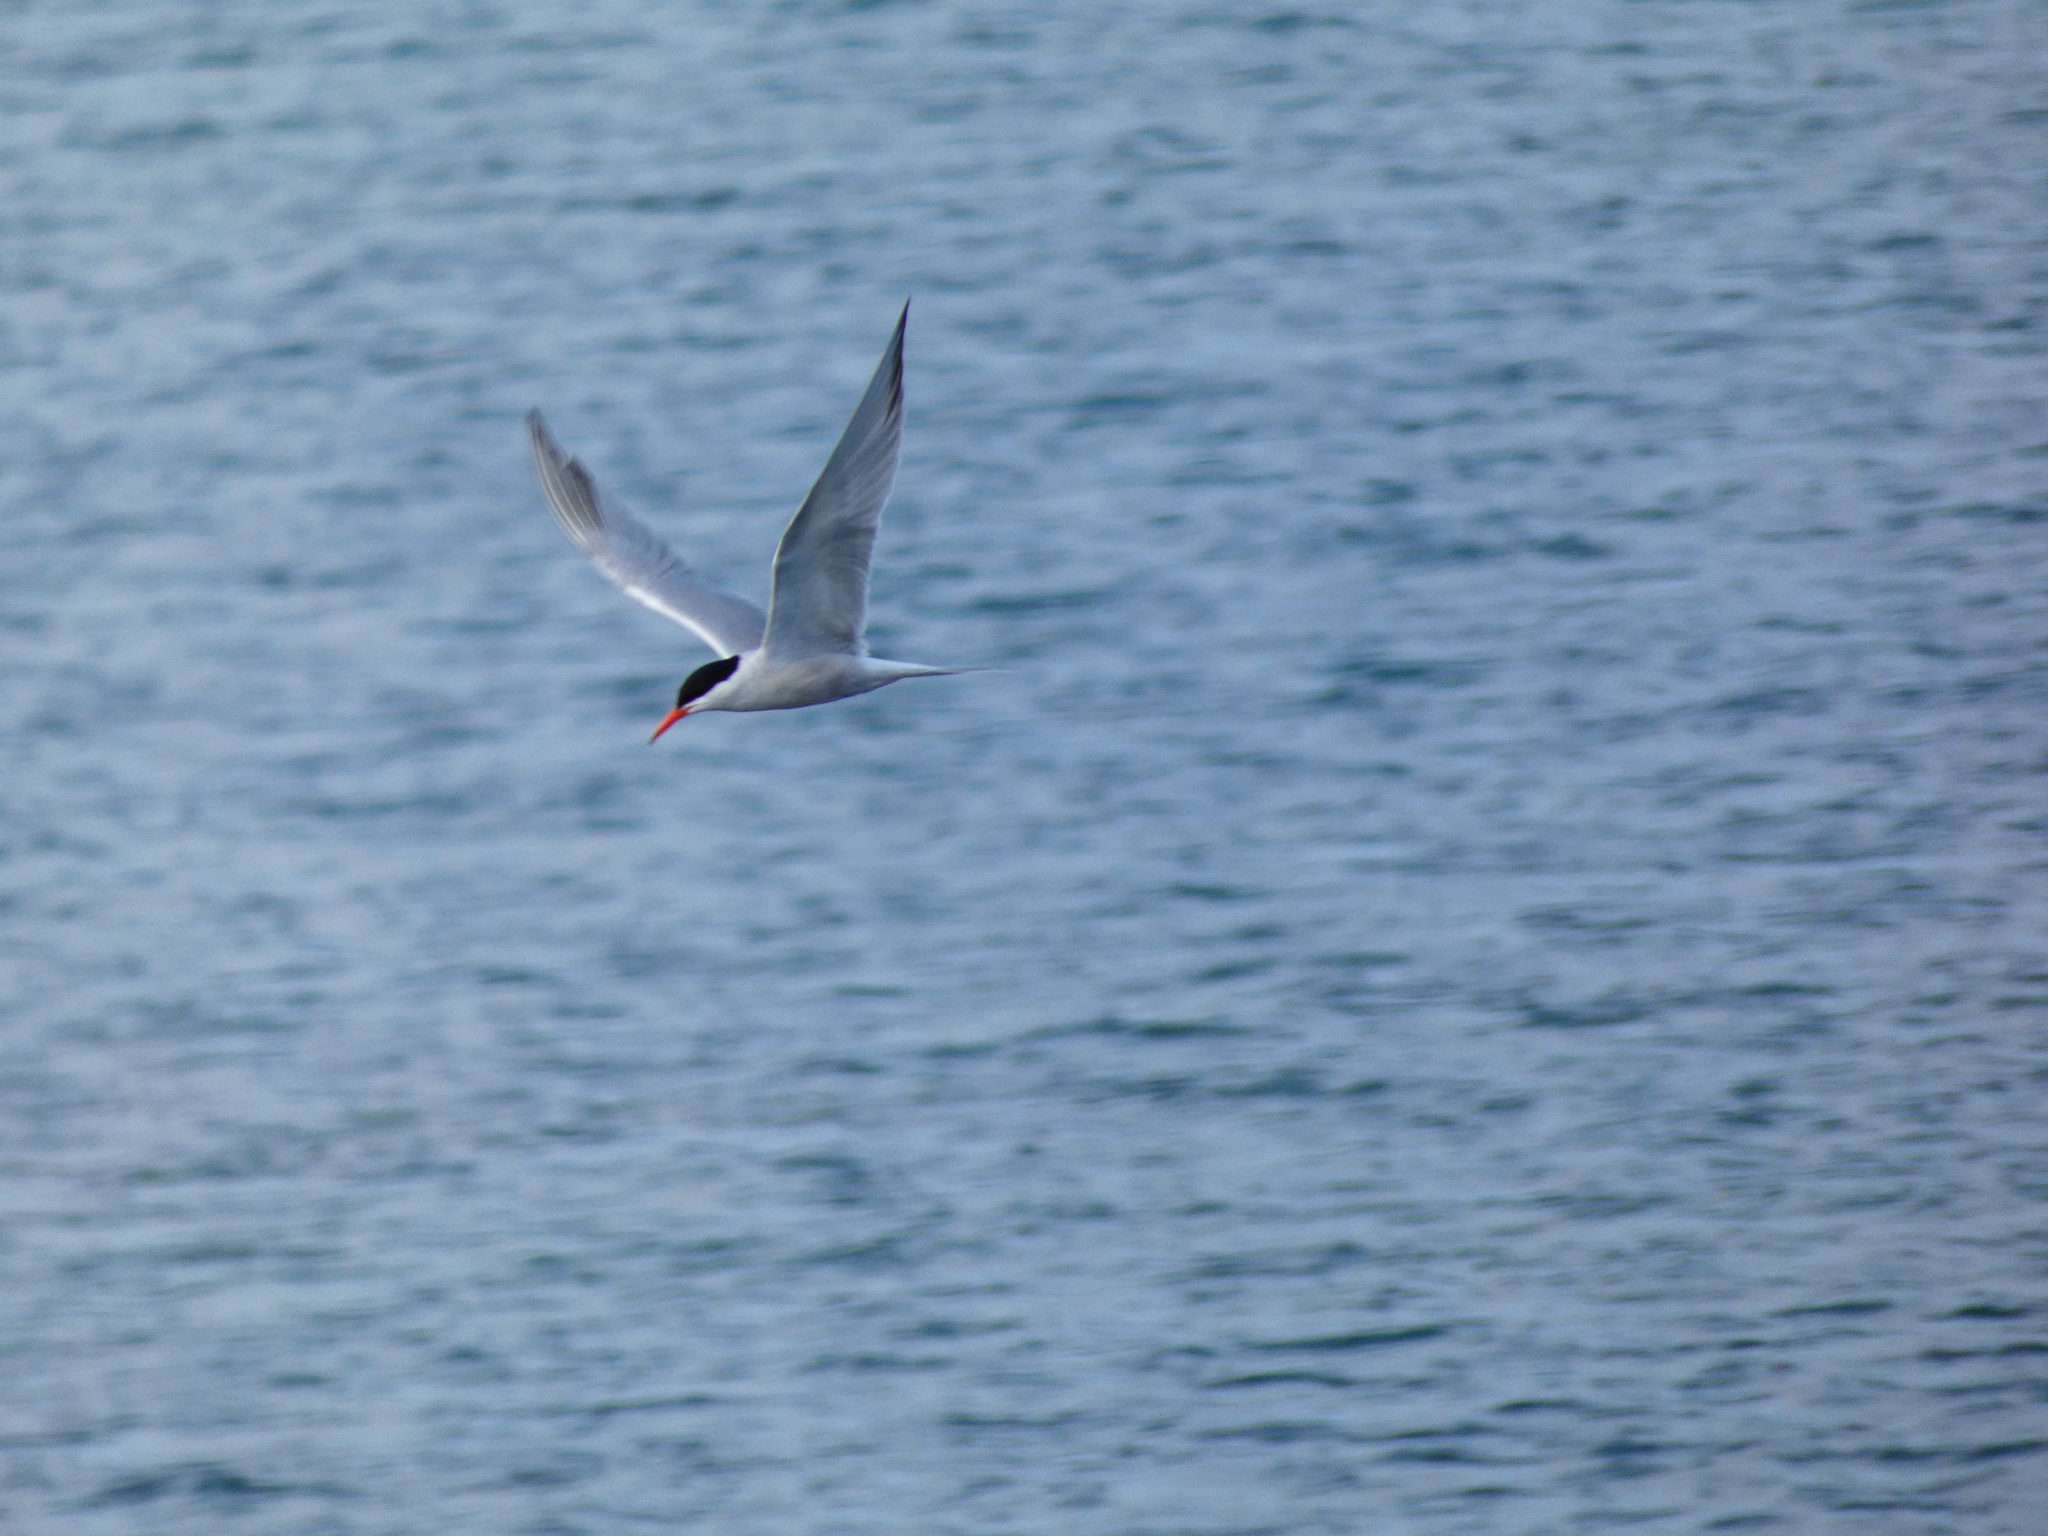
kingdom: Animalia
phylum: Chordata
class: Aves
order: Charadriiformes
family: Laridae
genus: Sterna
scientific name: Sterna hirundo
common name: Common tern
